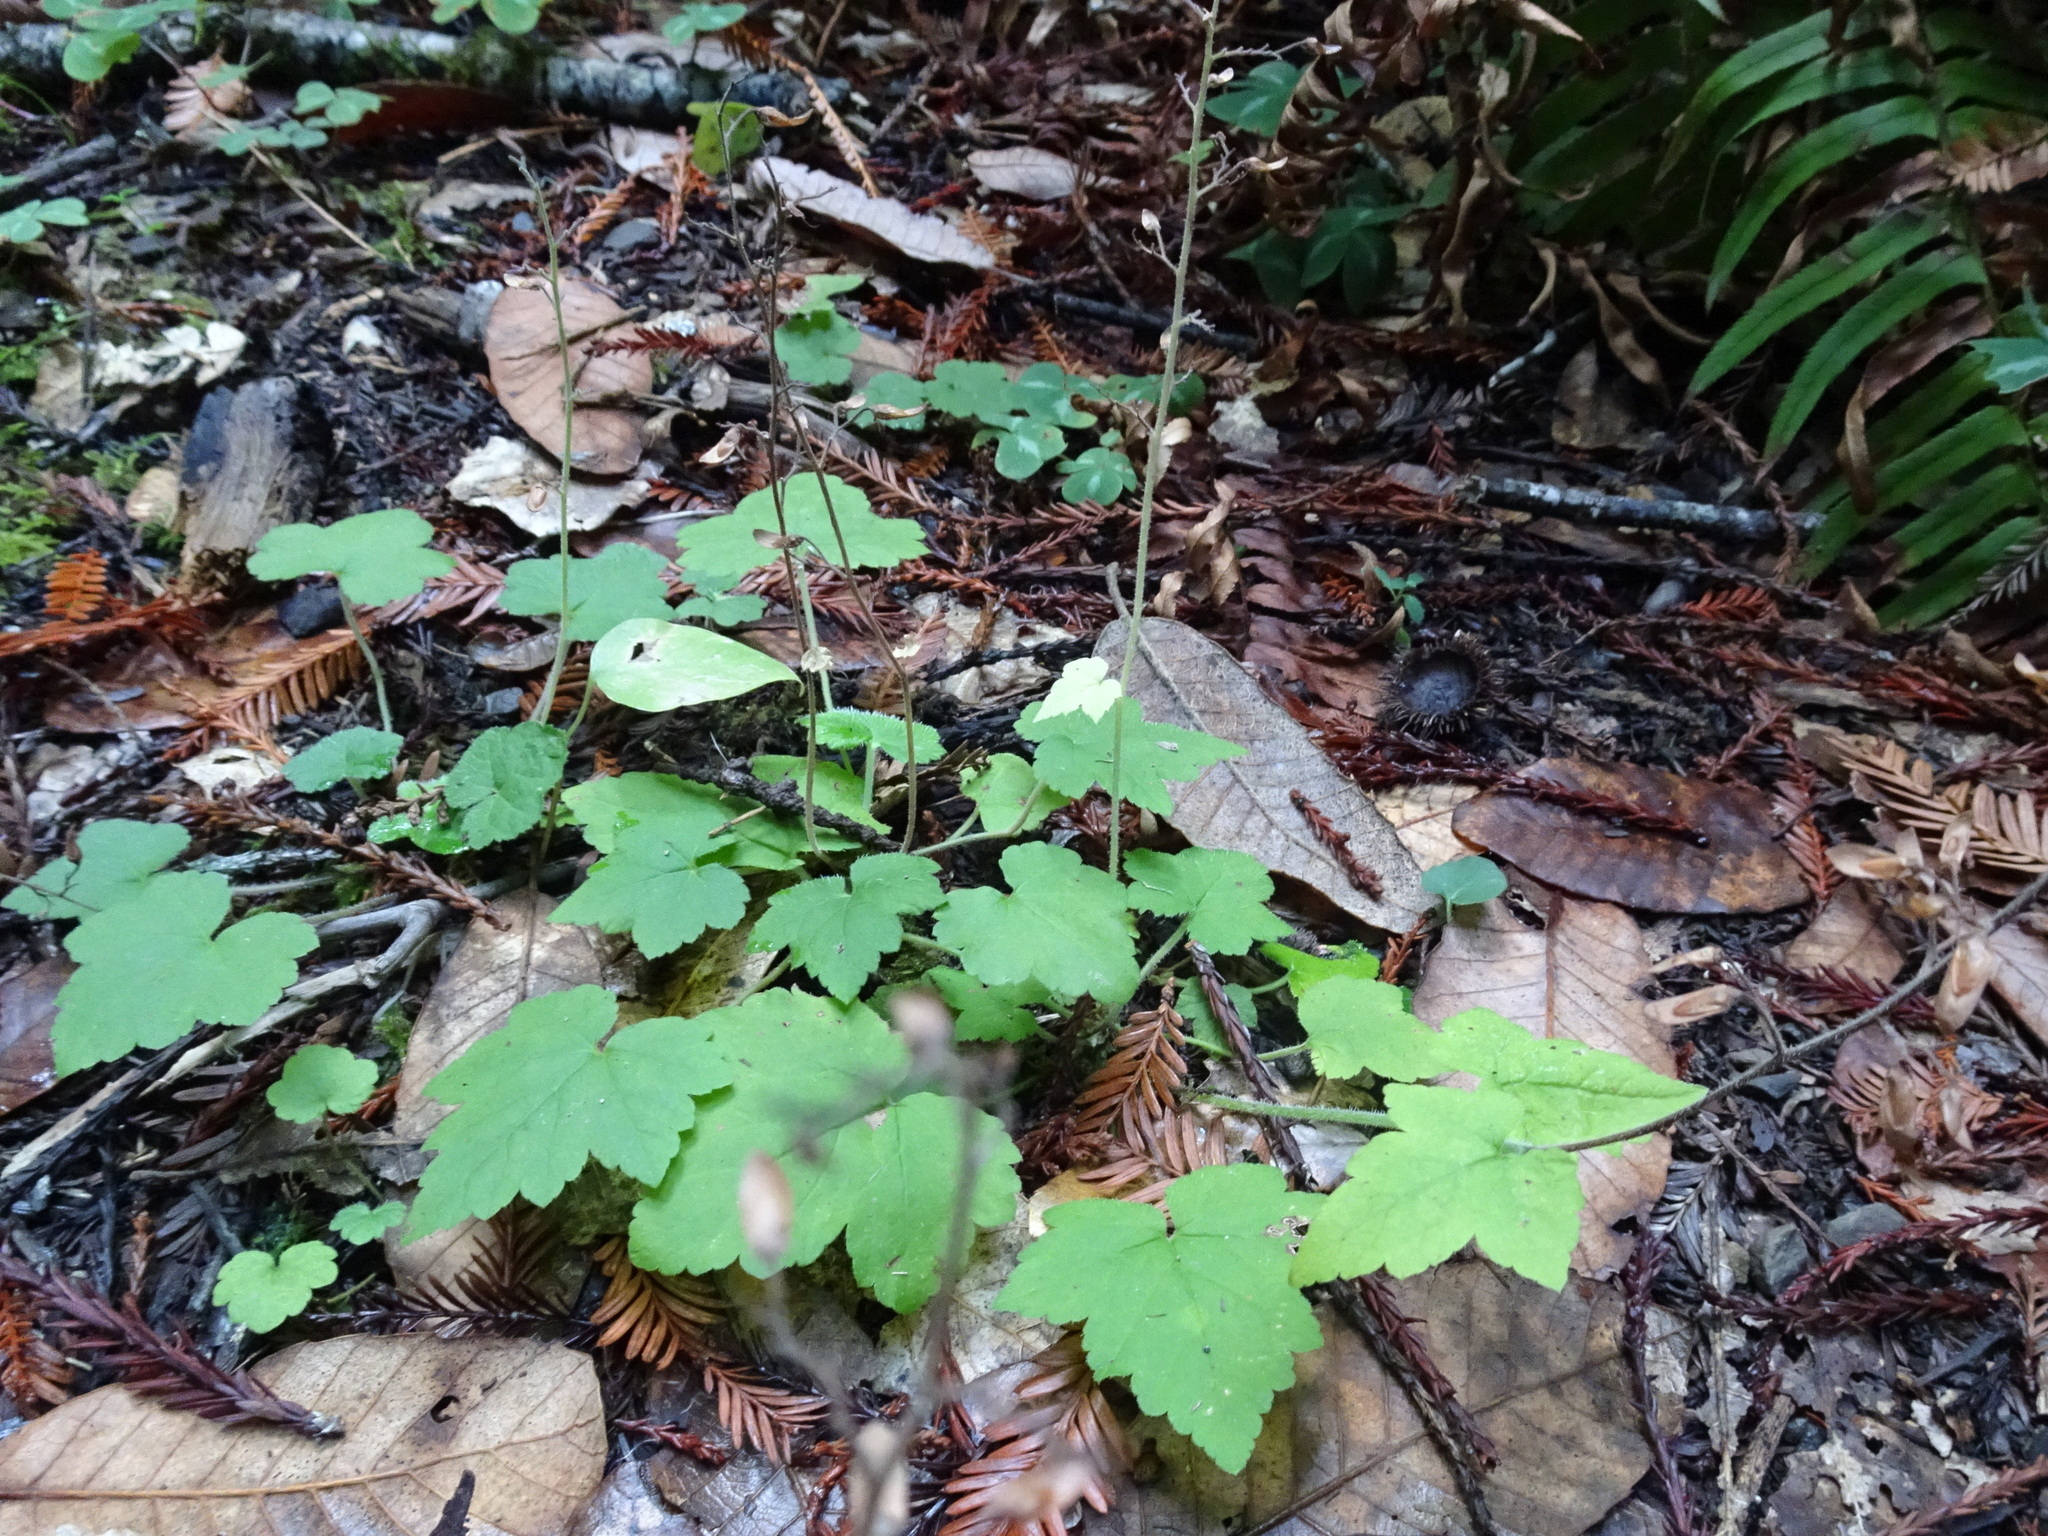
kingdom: Plantae
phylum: Tracheophyta
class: Magnoliopsida
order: Saxifragales
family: Saxifragaceae
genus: Tiarella
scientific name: Tiarella trifoliata
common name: Sugar-scoop
